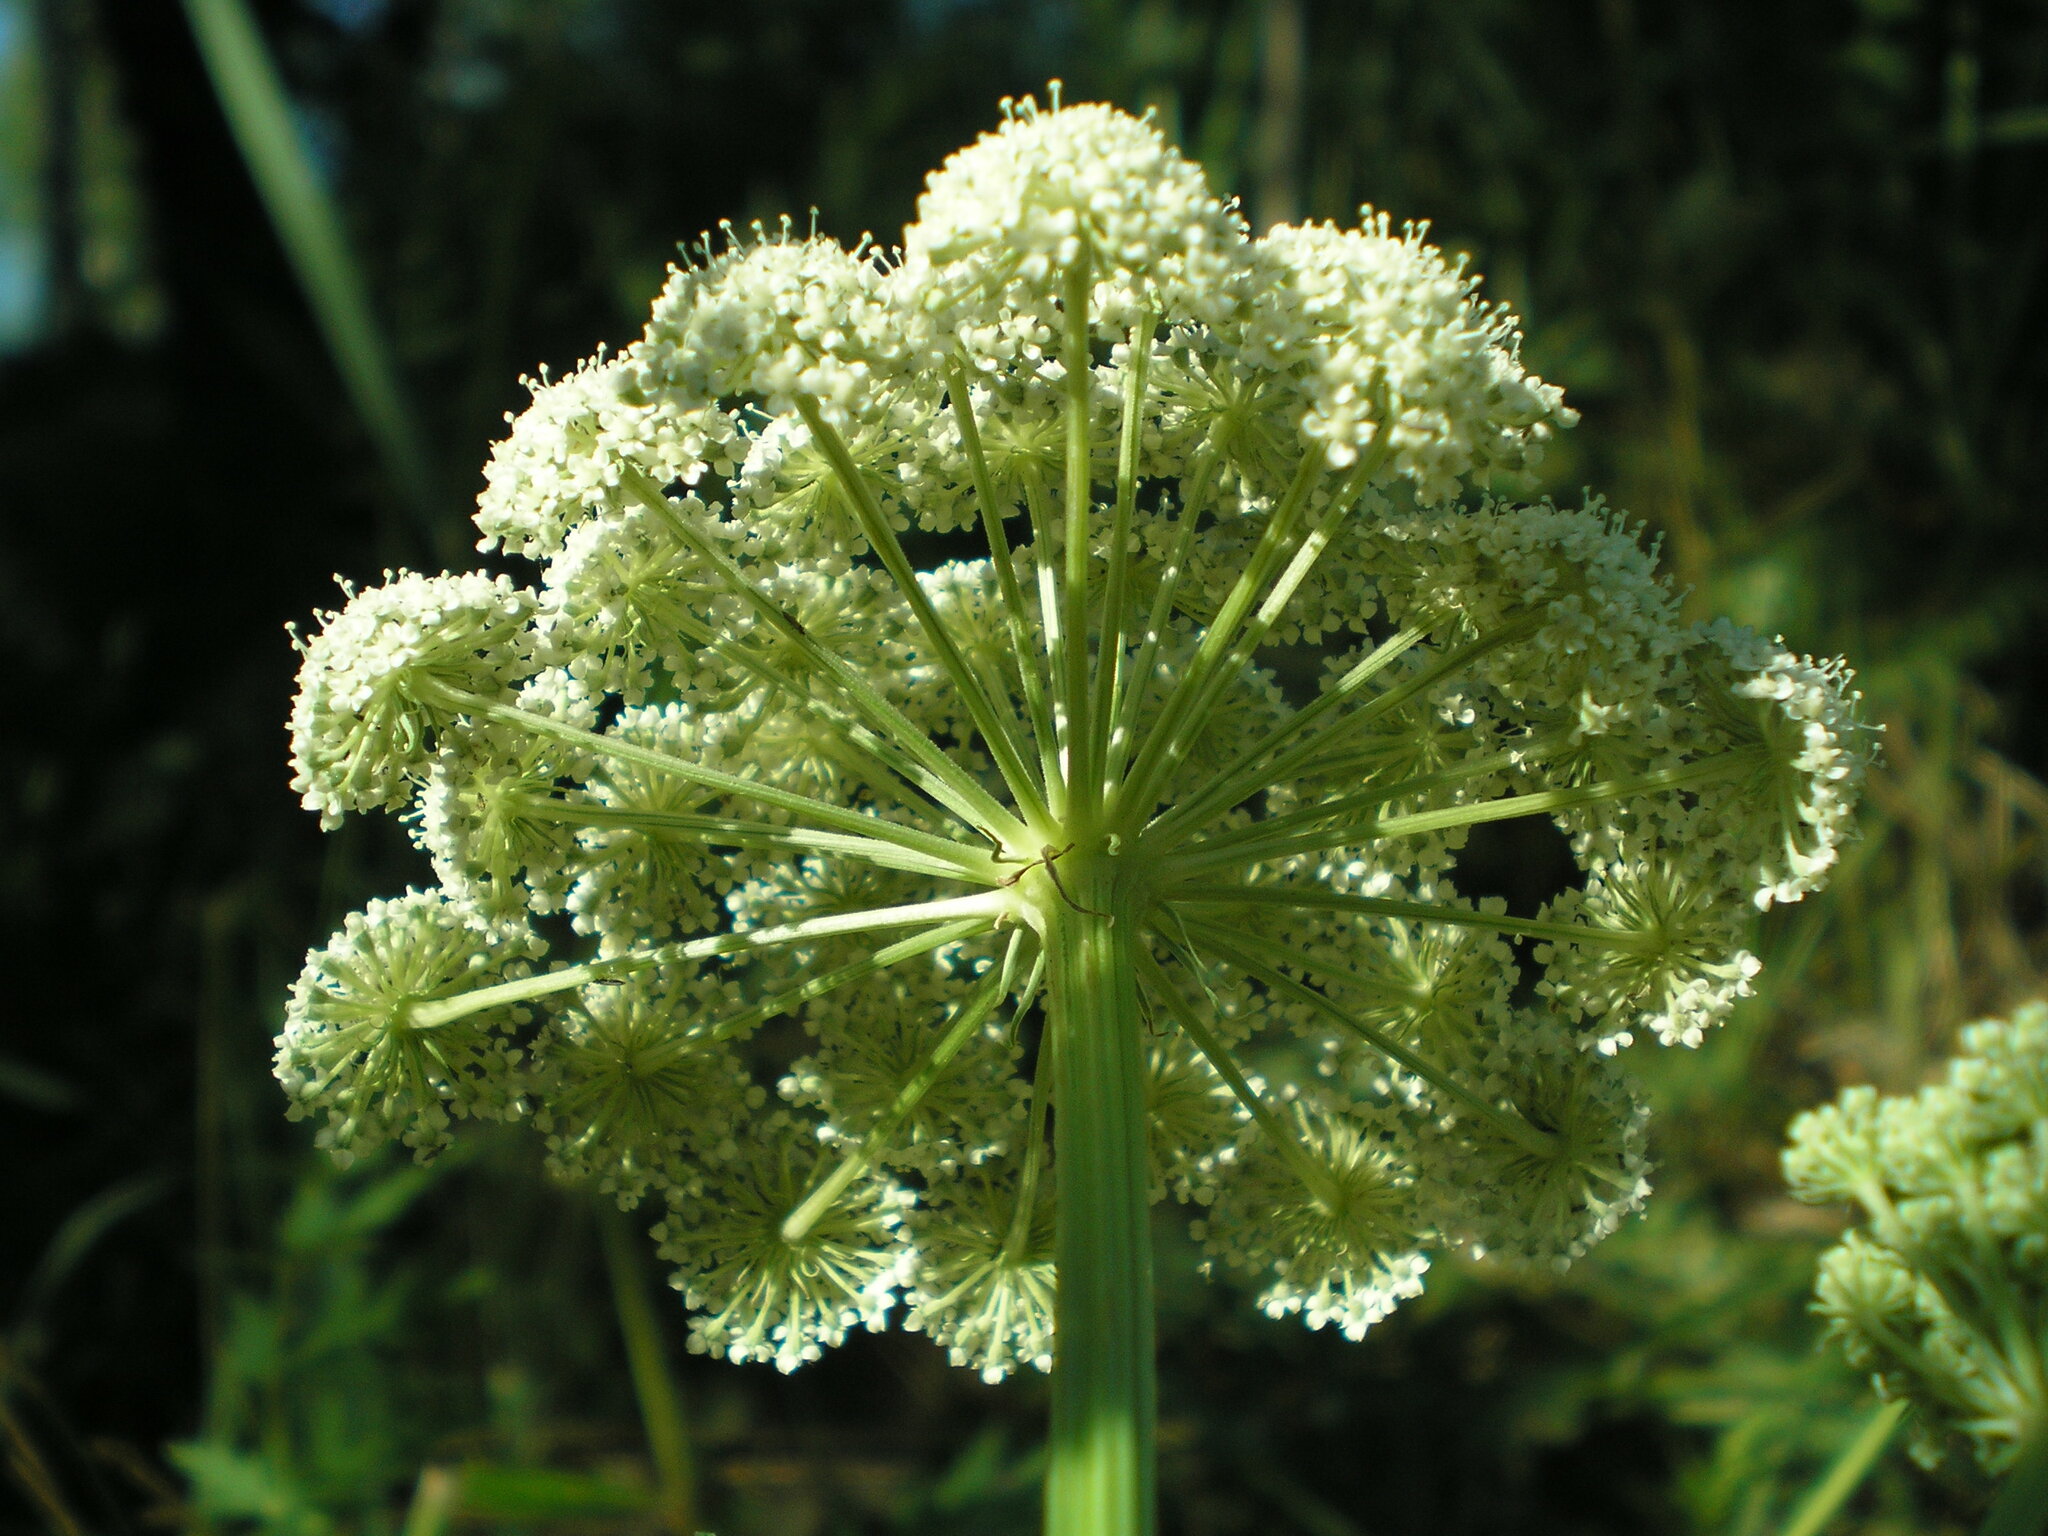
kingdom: Plantae
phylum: Tracheophyta
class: Magnoliopsida
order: Apiales
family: Apiaceae
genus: Seseli
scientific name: Seseli libanotis
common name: Mooncarrot
